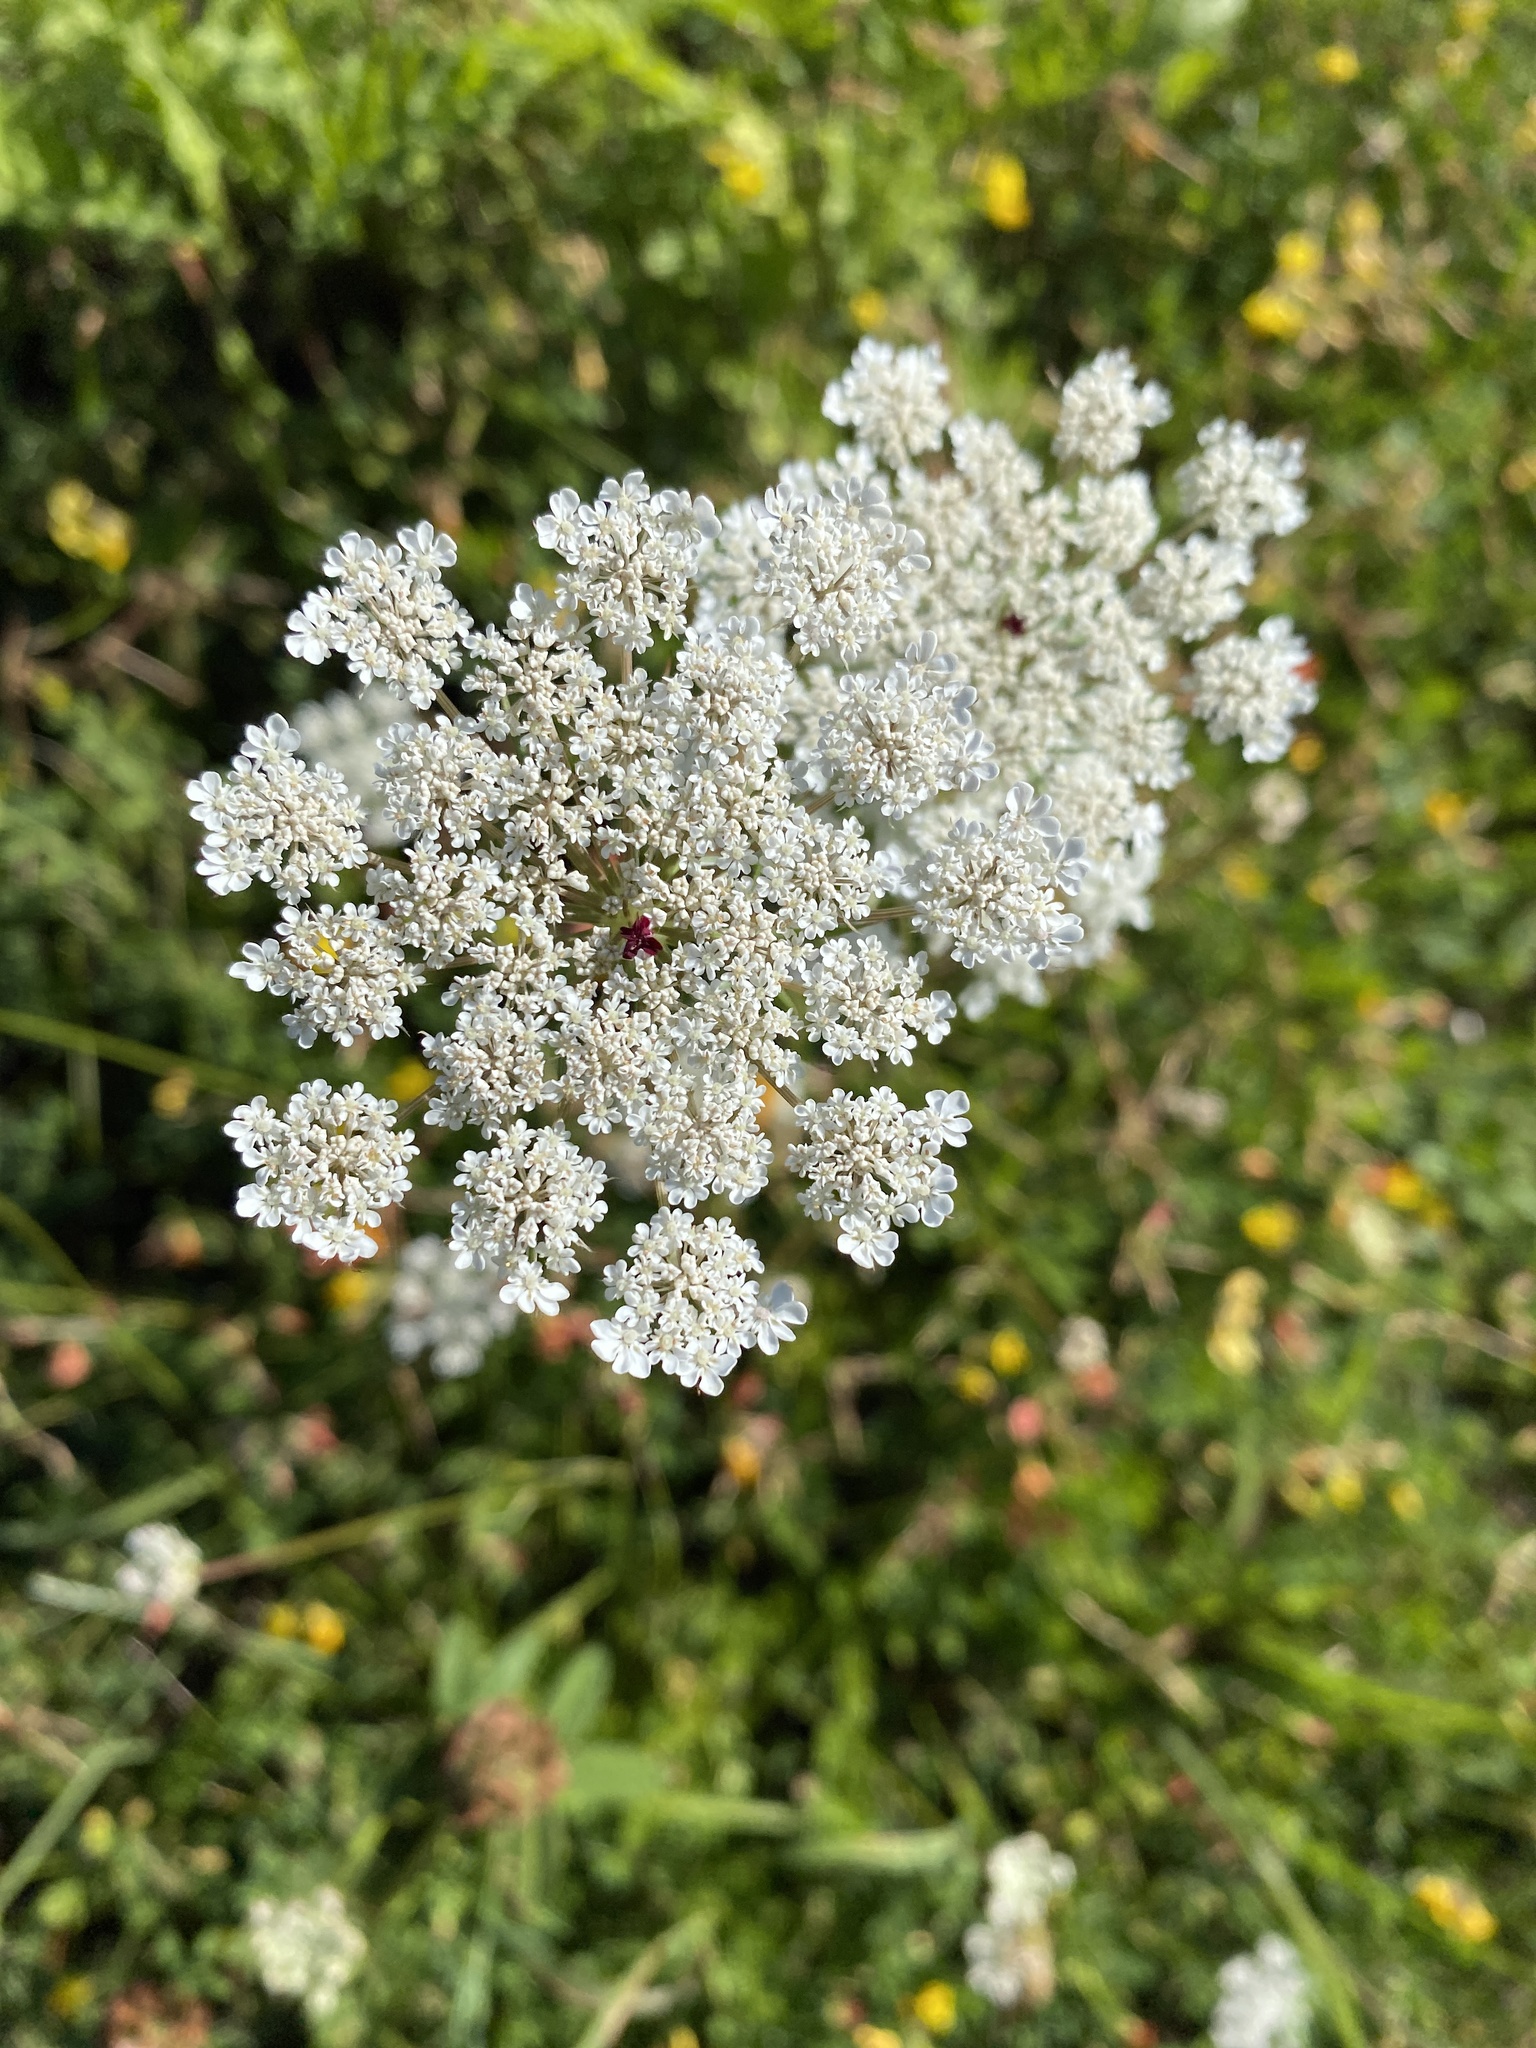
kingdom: Plantae
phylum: Tracheophyta
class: Magnoliopsida
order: Apiales
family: Apiaceae
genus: Daucus
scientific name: Daucus carota
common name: Wild carrot
